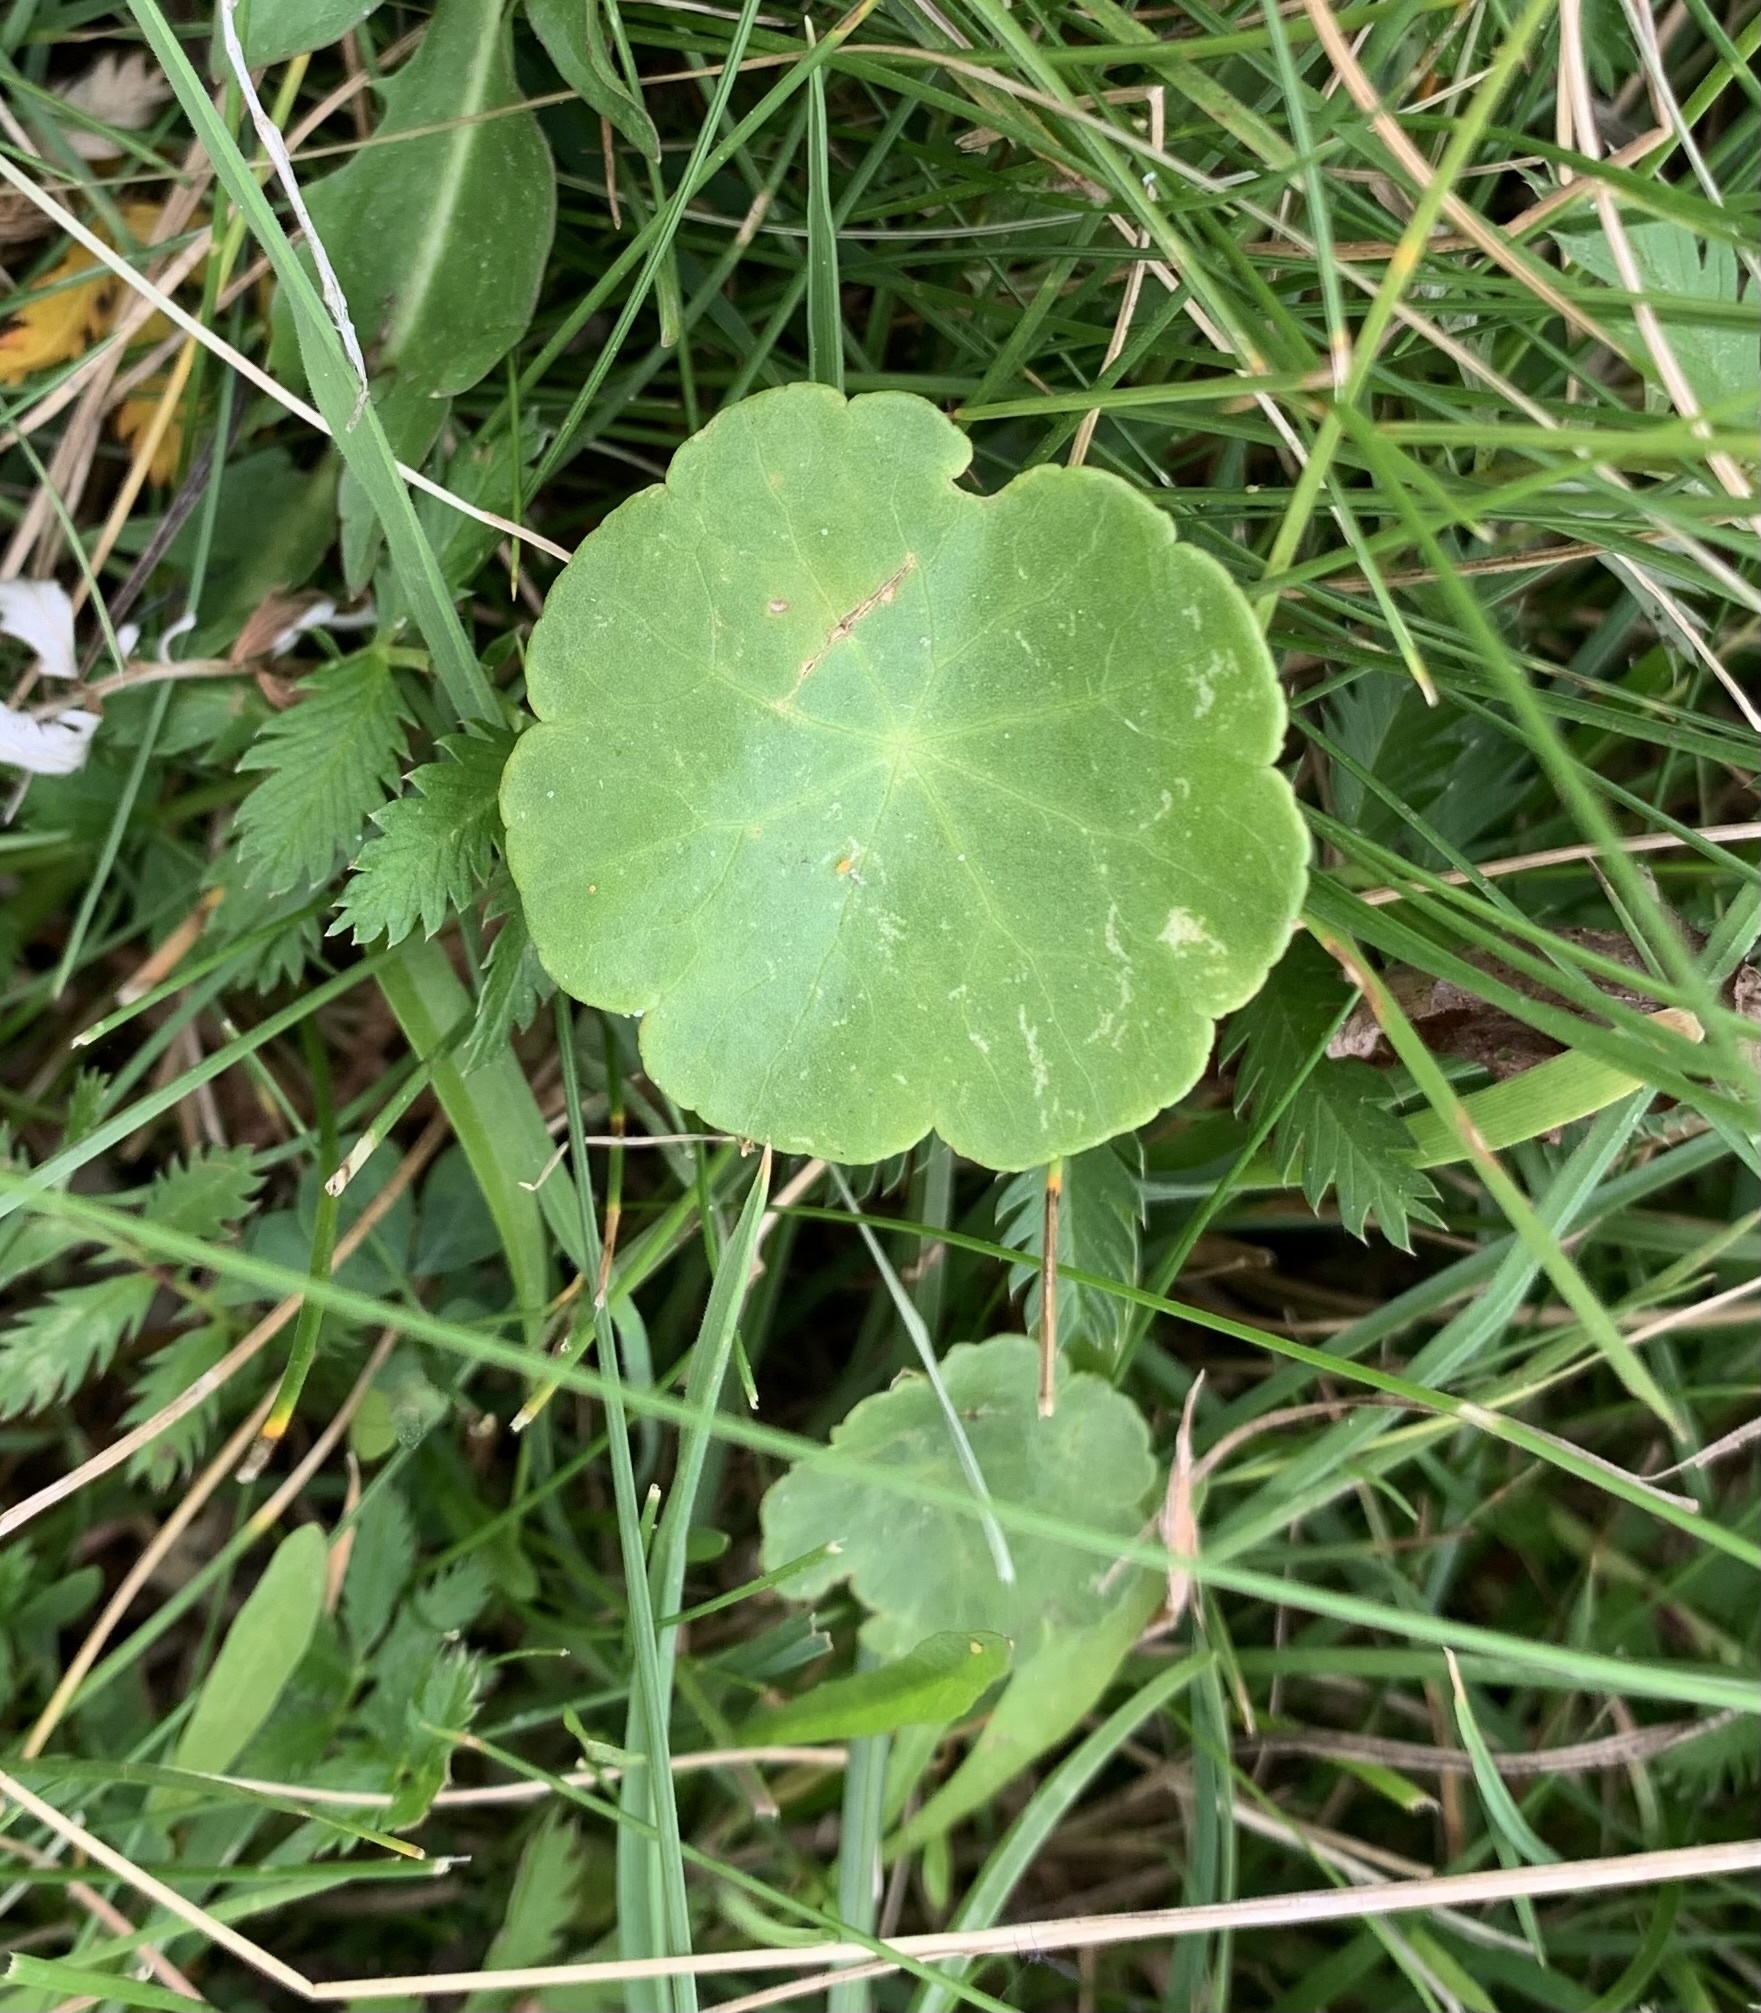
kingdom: Plantae
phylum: Tracheophyta
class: Magnoliopsida
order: Apiales
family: Araliaceae
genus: Hydrocotyle
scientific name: Hydrocotyle vulgaris
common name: Marsh pennywort
